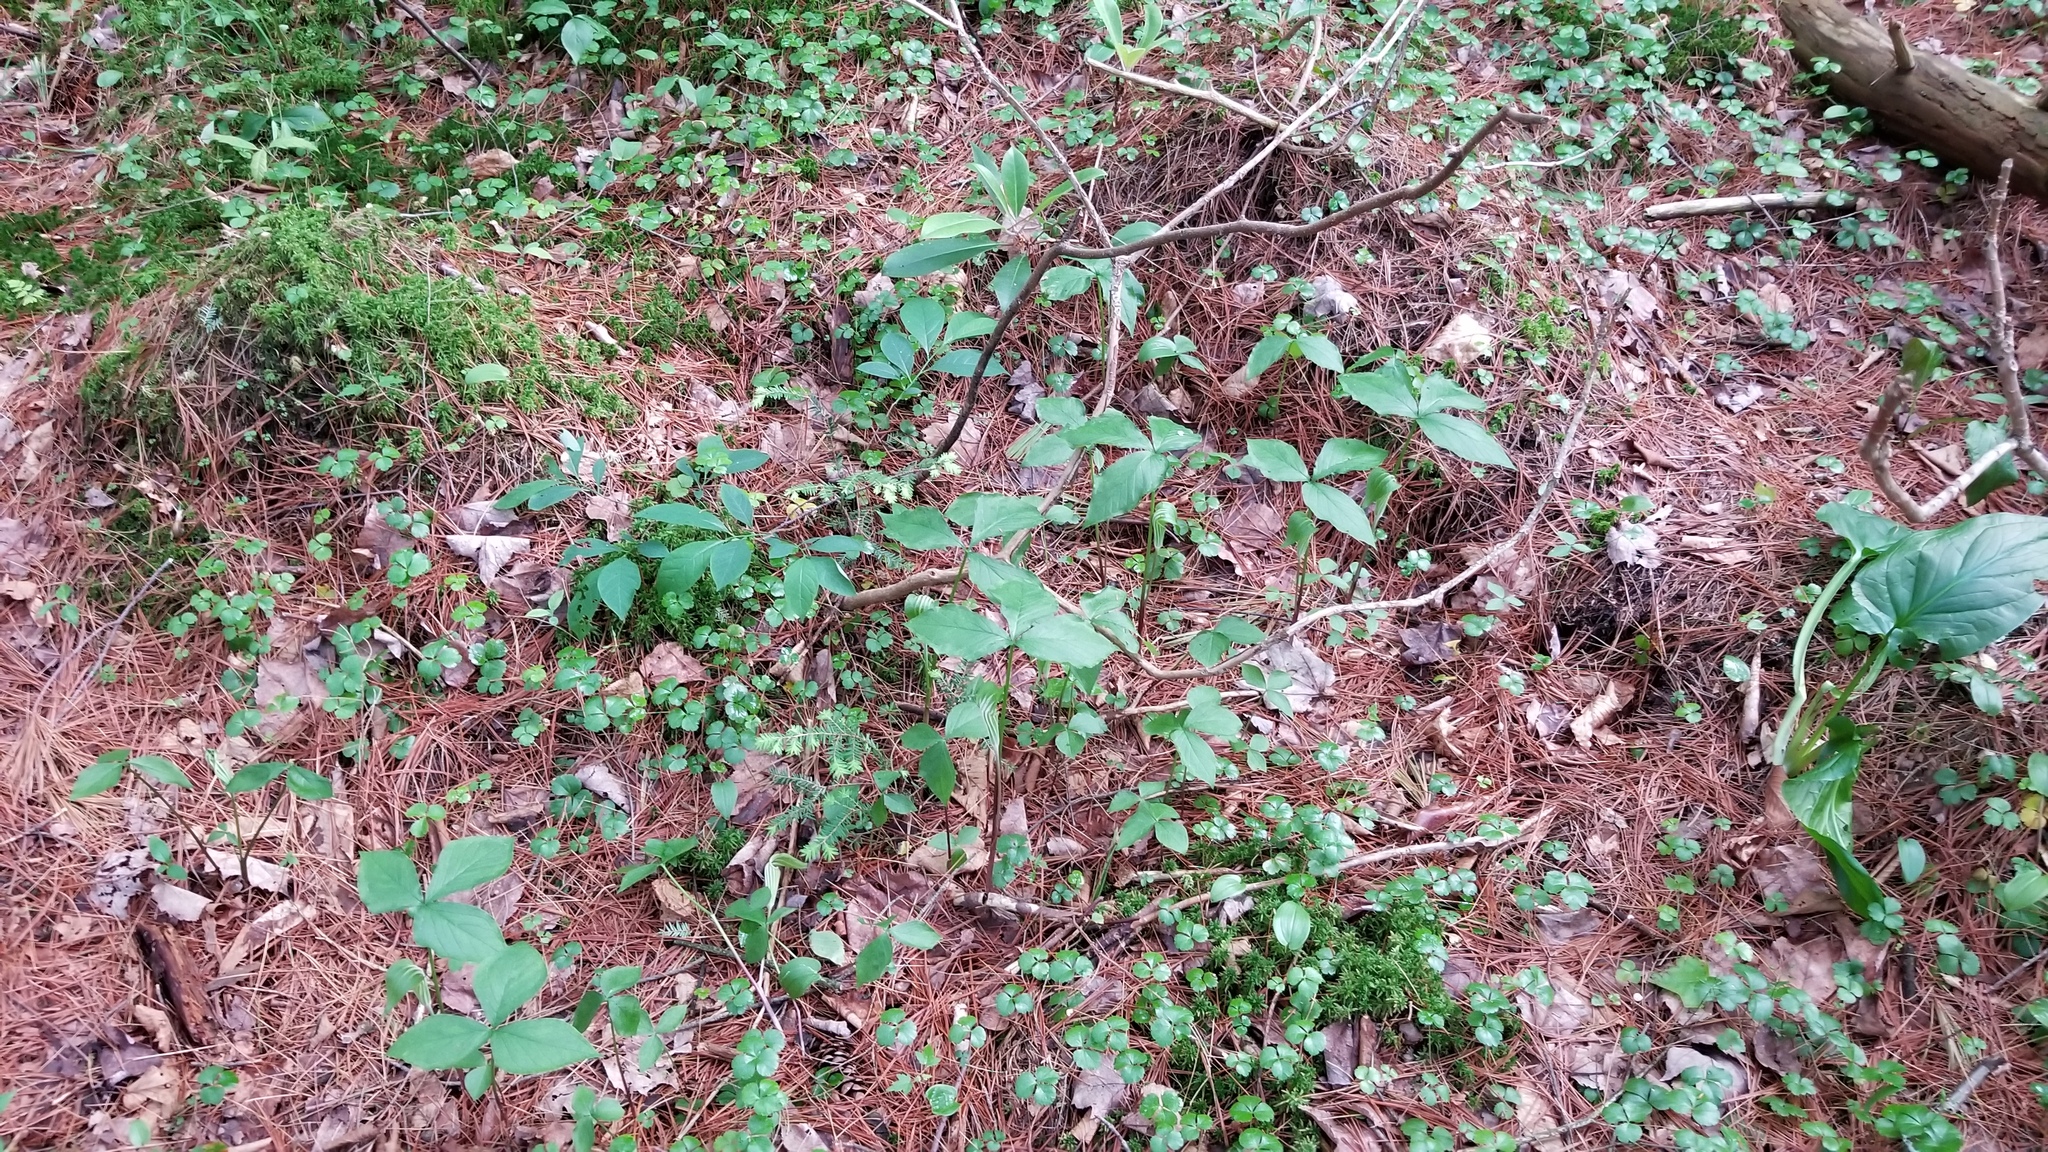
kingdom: Plantae
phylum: Tracheophyta
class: Liliopsida
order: Alismatales
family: Araceae
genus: Arisaema
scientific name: Arisaema stewardsonii
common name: Swamp jack-in-the-pulpit
